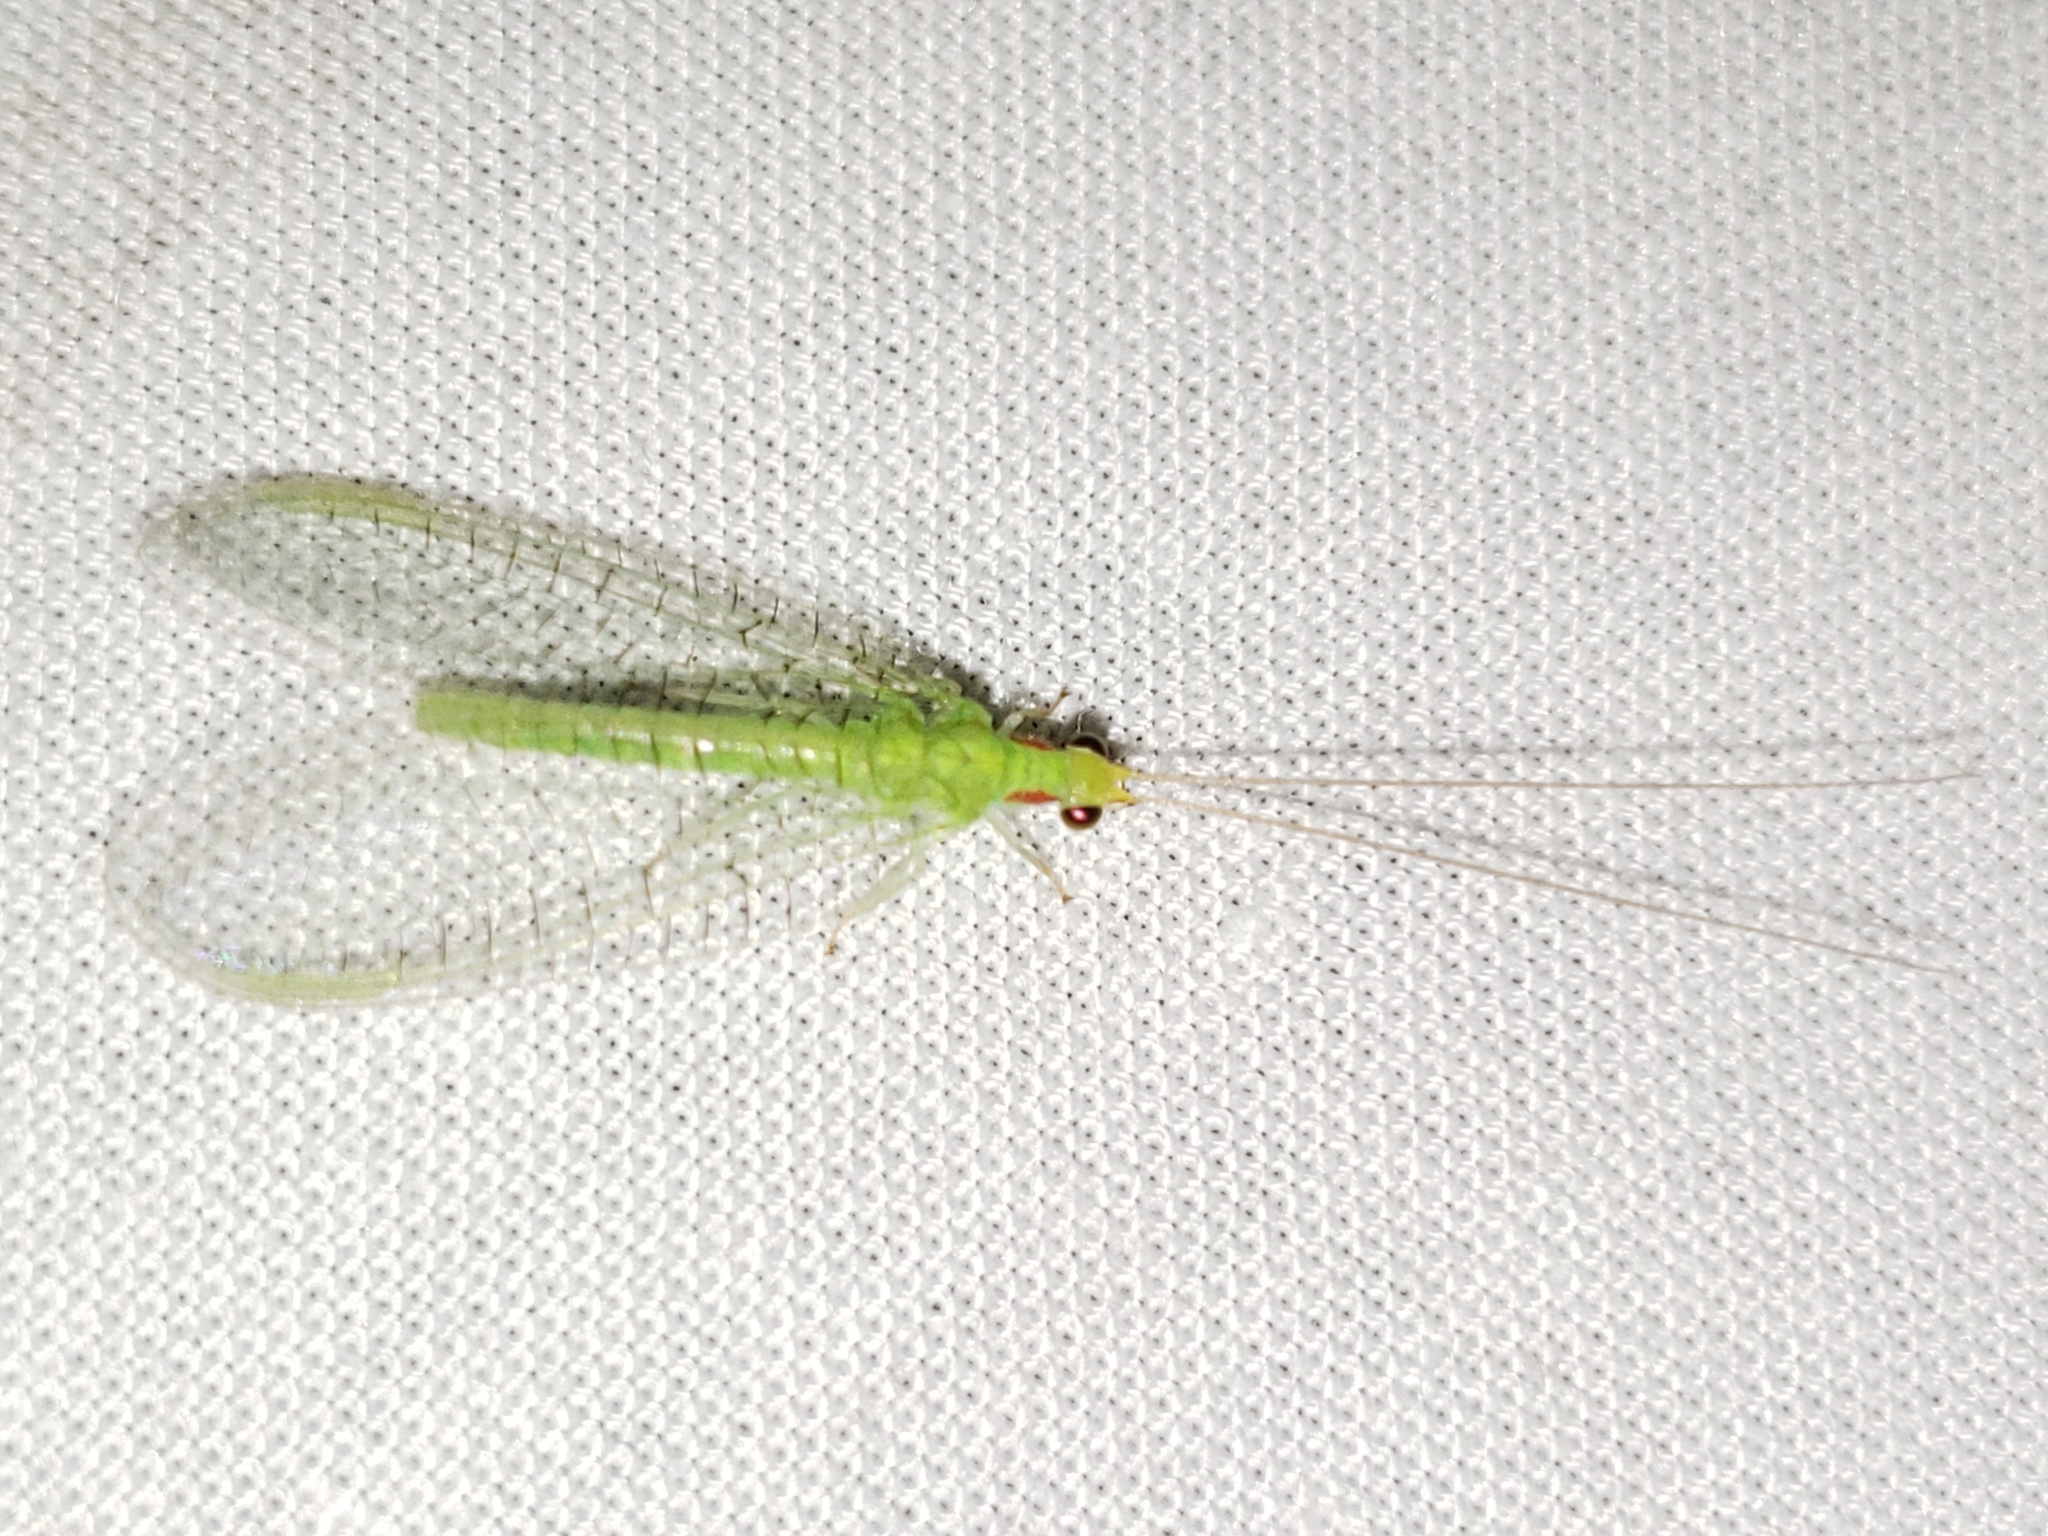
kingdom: Animalia
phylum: Arthropoda
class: Insecta
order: Neuroptera
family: Chrysopidae
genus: Ceraeochrysa
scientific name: Ceraeochrysa cubana
